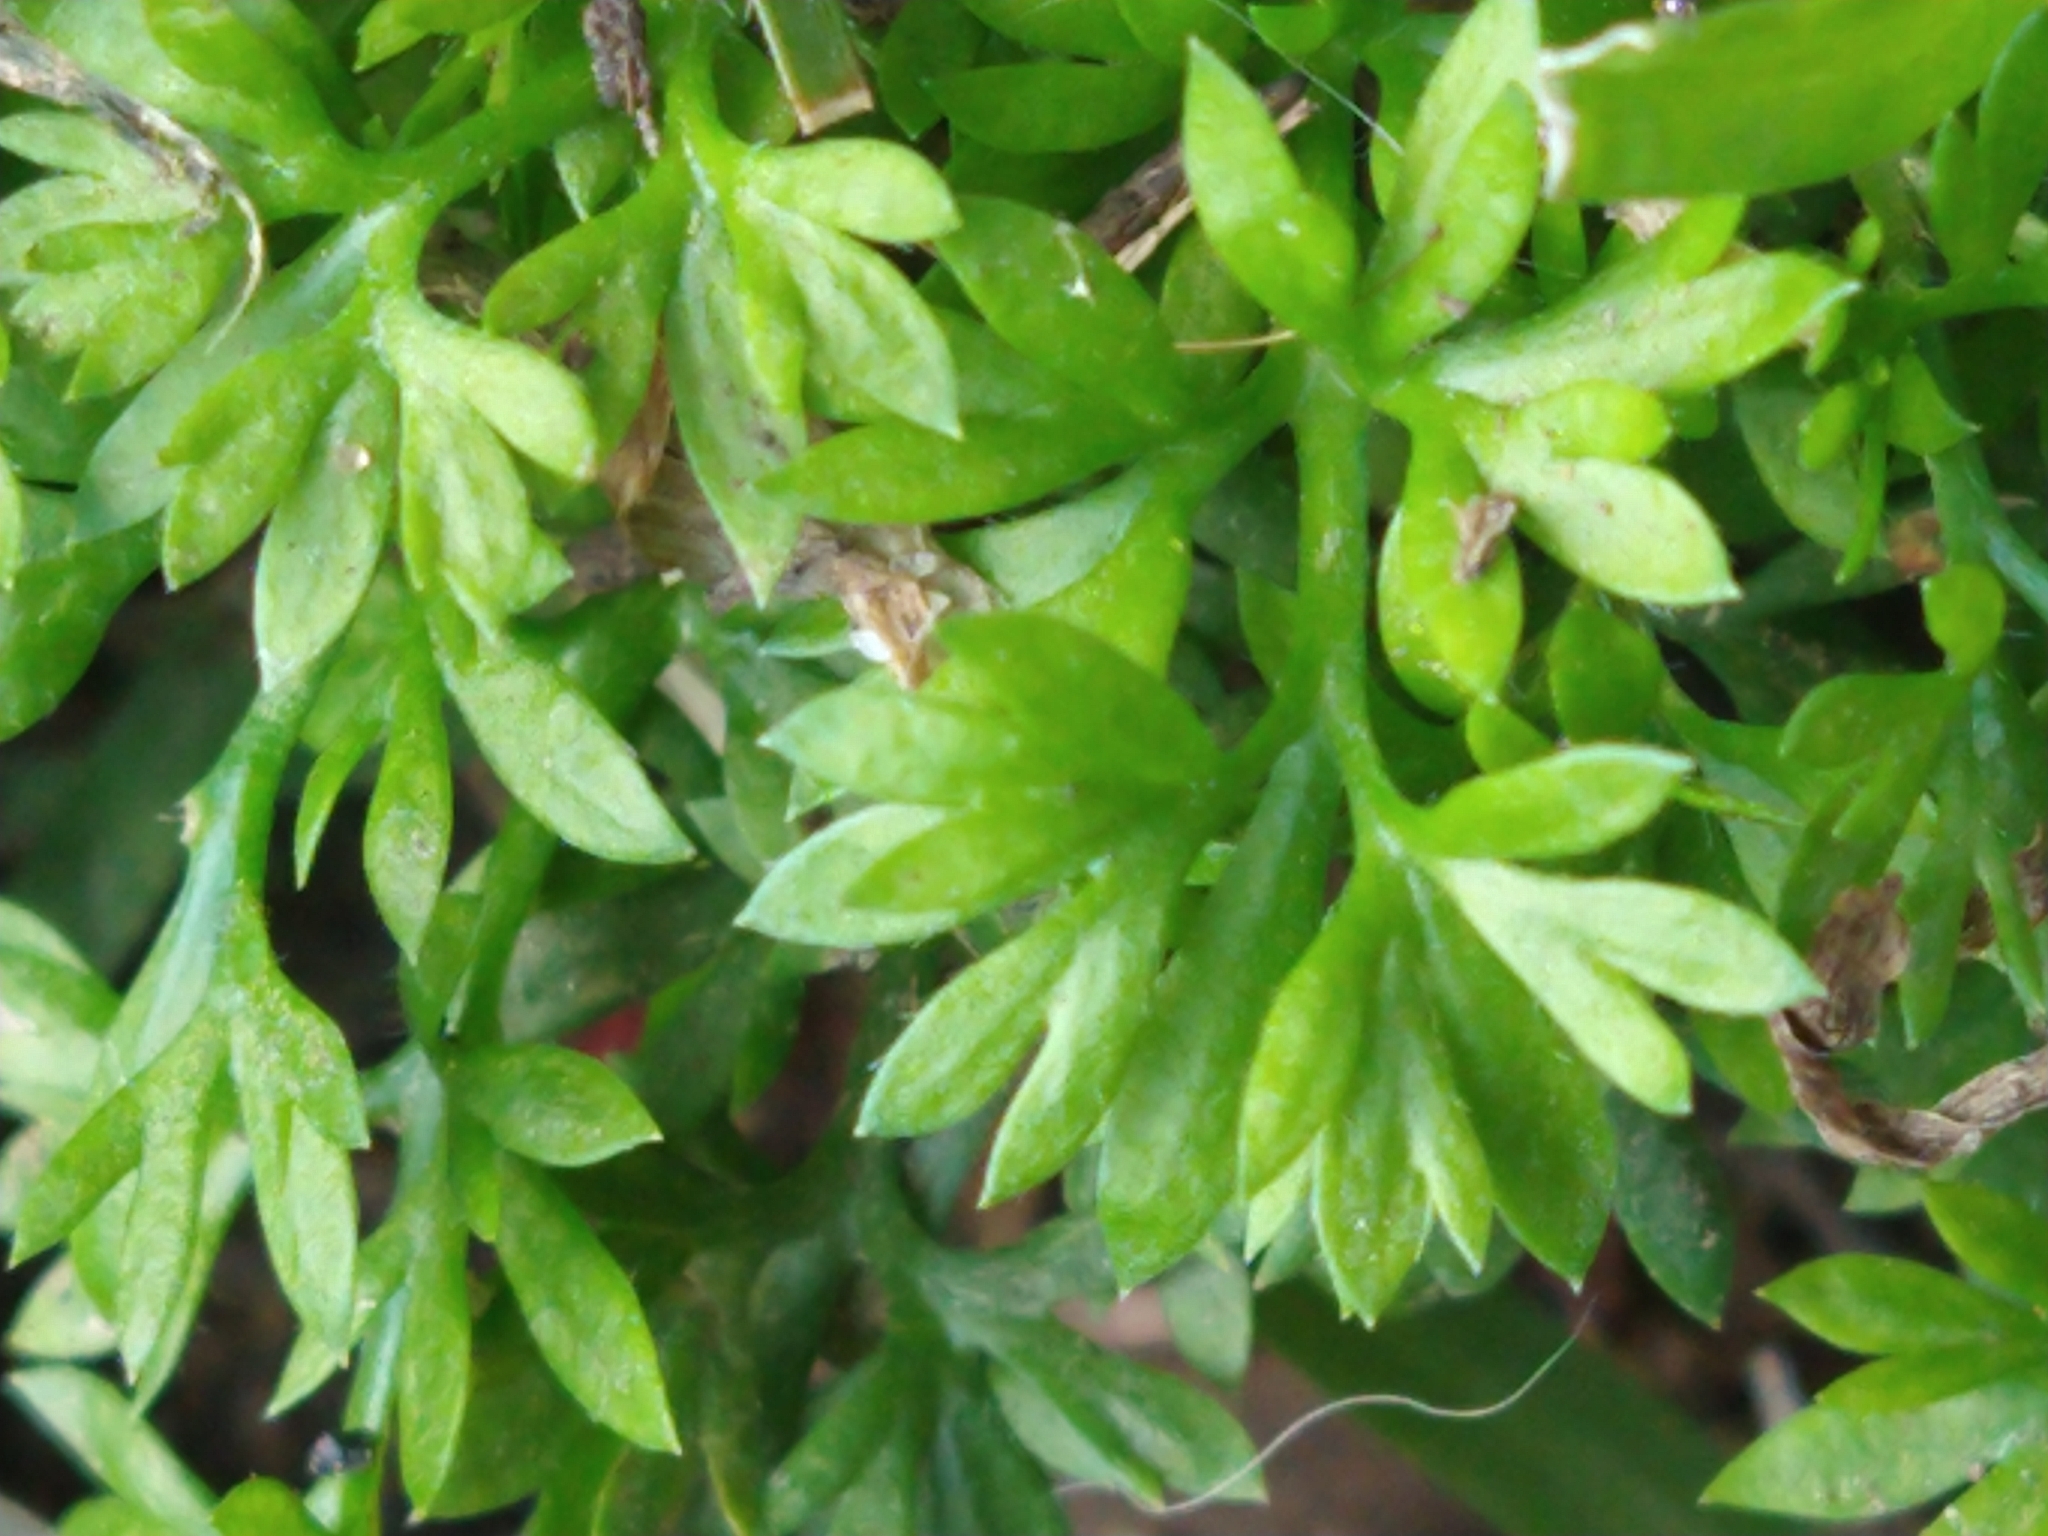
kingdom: Plantae
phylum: Tracheophyta
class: Magnoliopsida
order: Asterales
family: Asteraceae
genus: Cotula
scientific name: Cotula australis
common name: Australian waterbuttons
